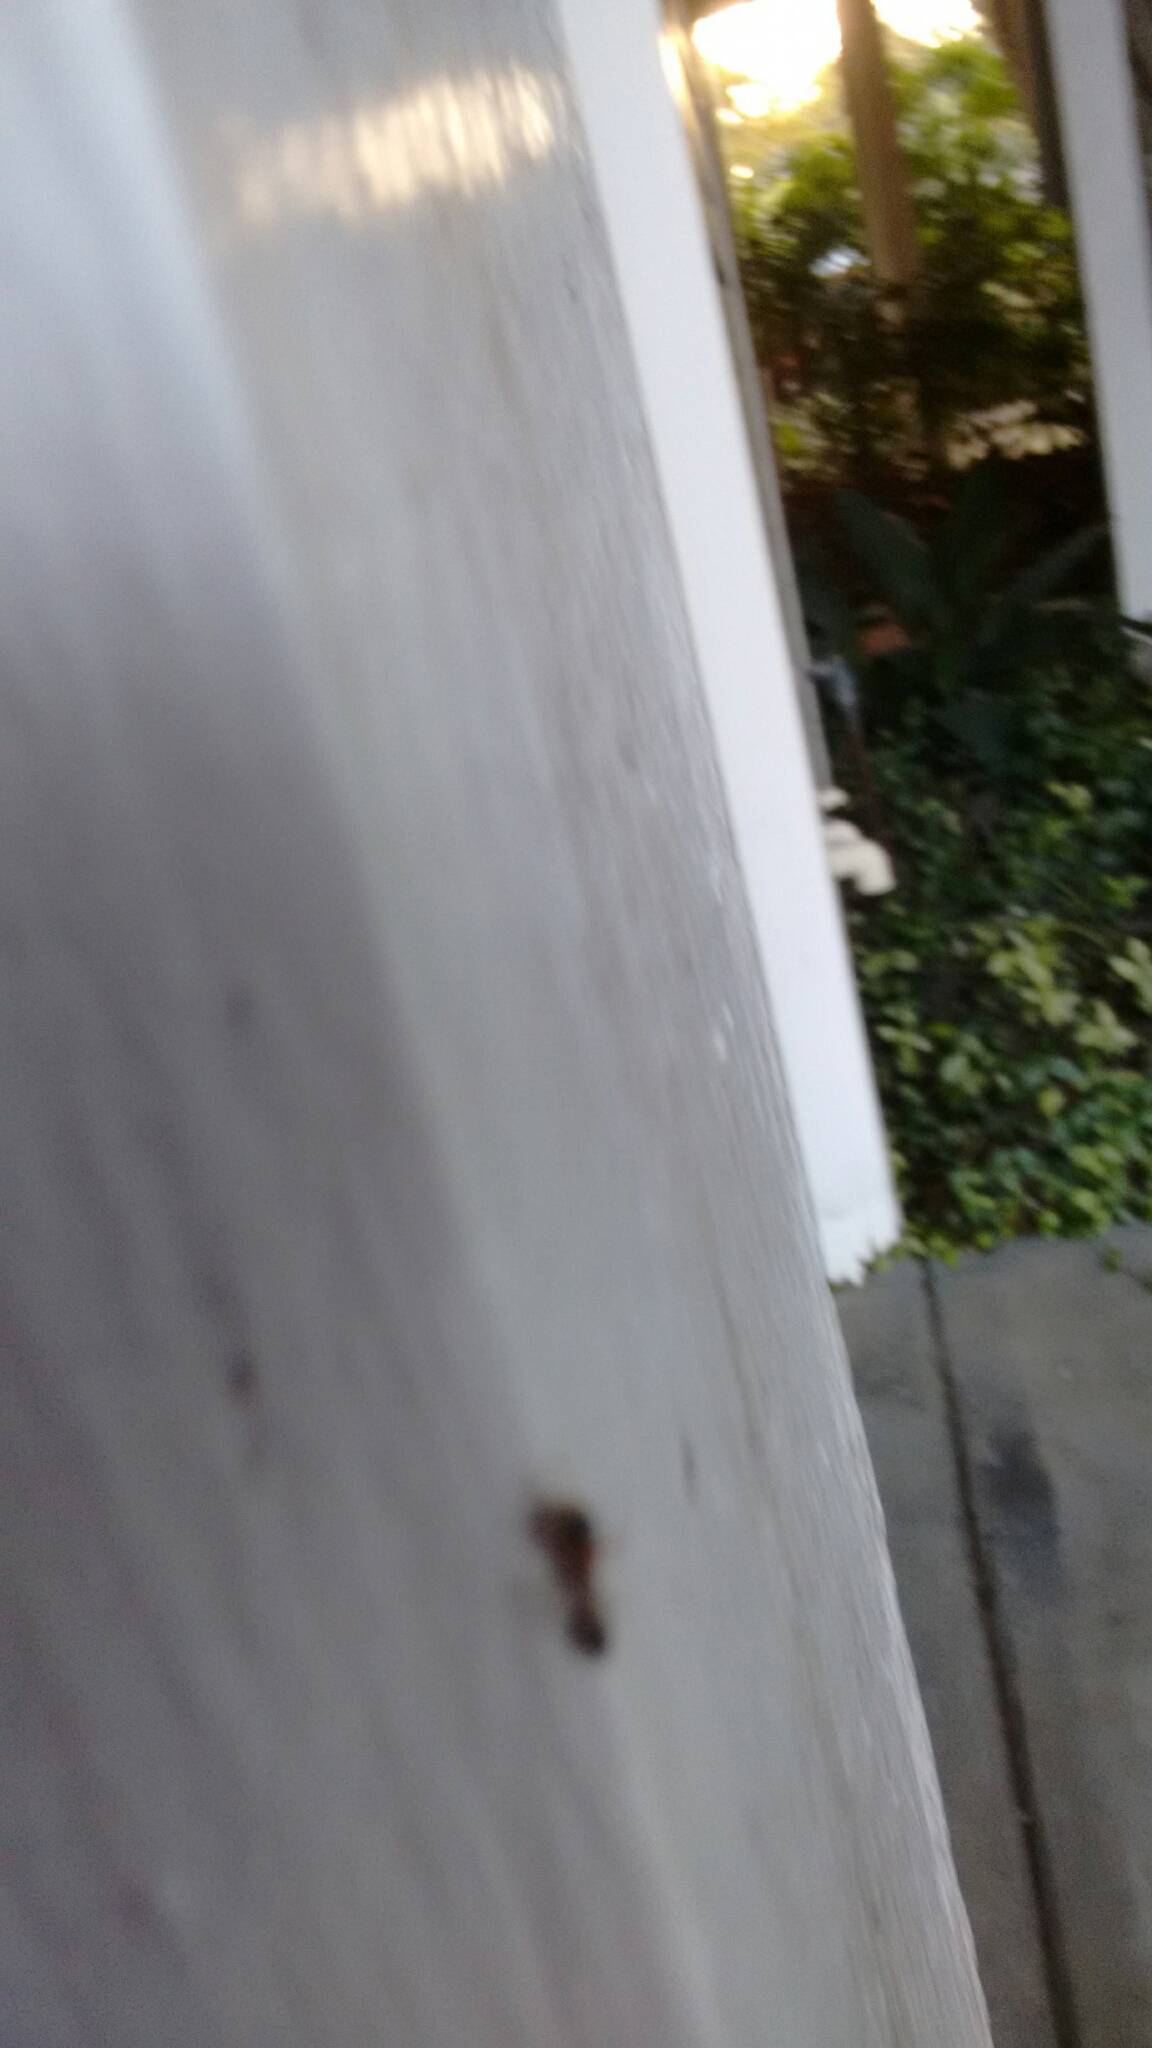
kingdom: Animalia
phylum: Arthropoda
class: Insecta
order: Hymenoptera
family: Formicidae
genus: Pseudomyrmex
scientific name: Pseudomyrmex gracilis
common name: Graceful twig ant
